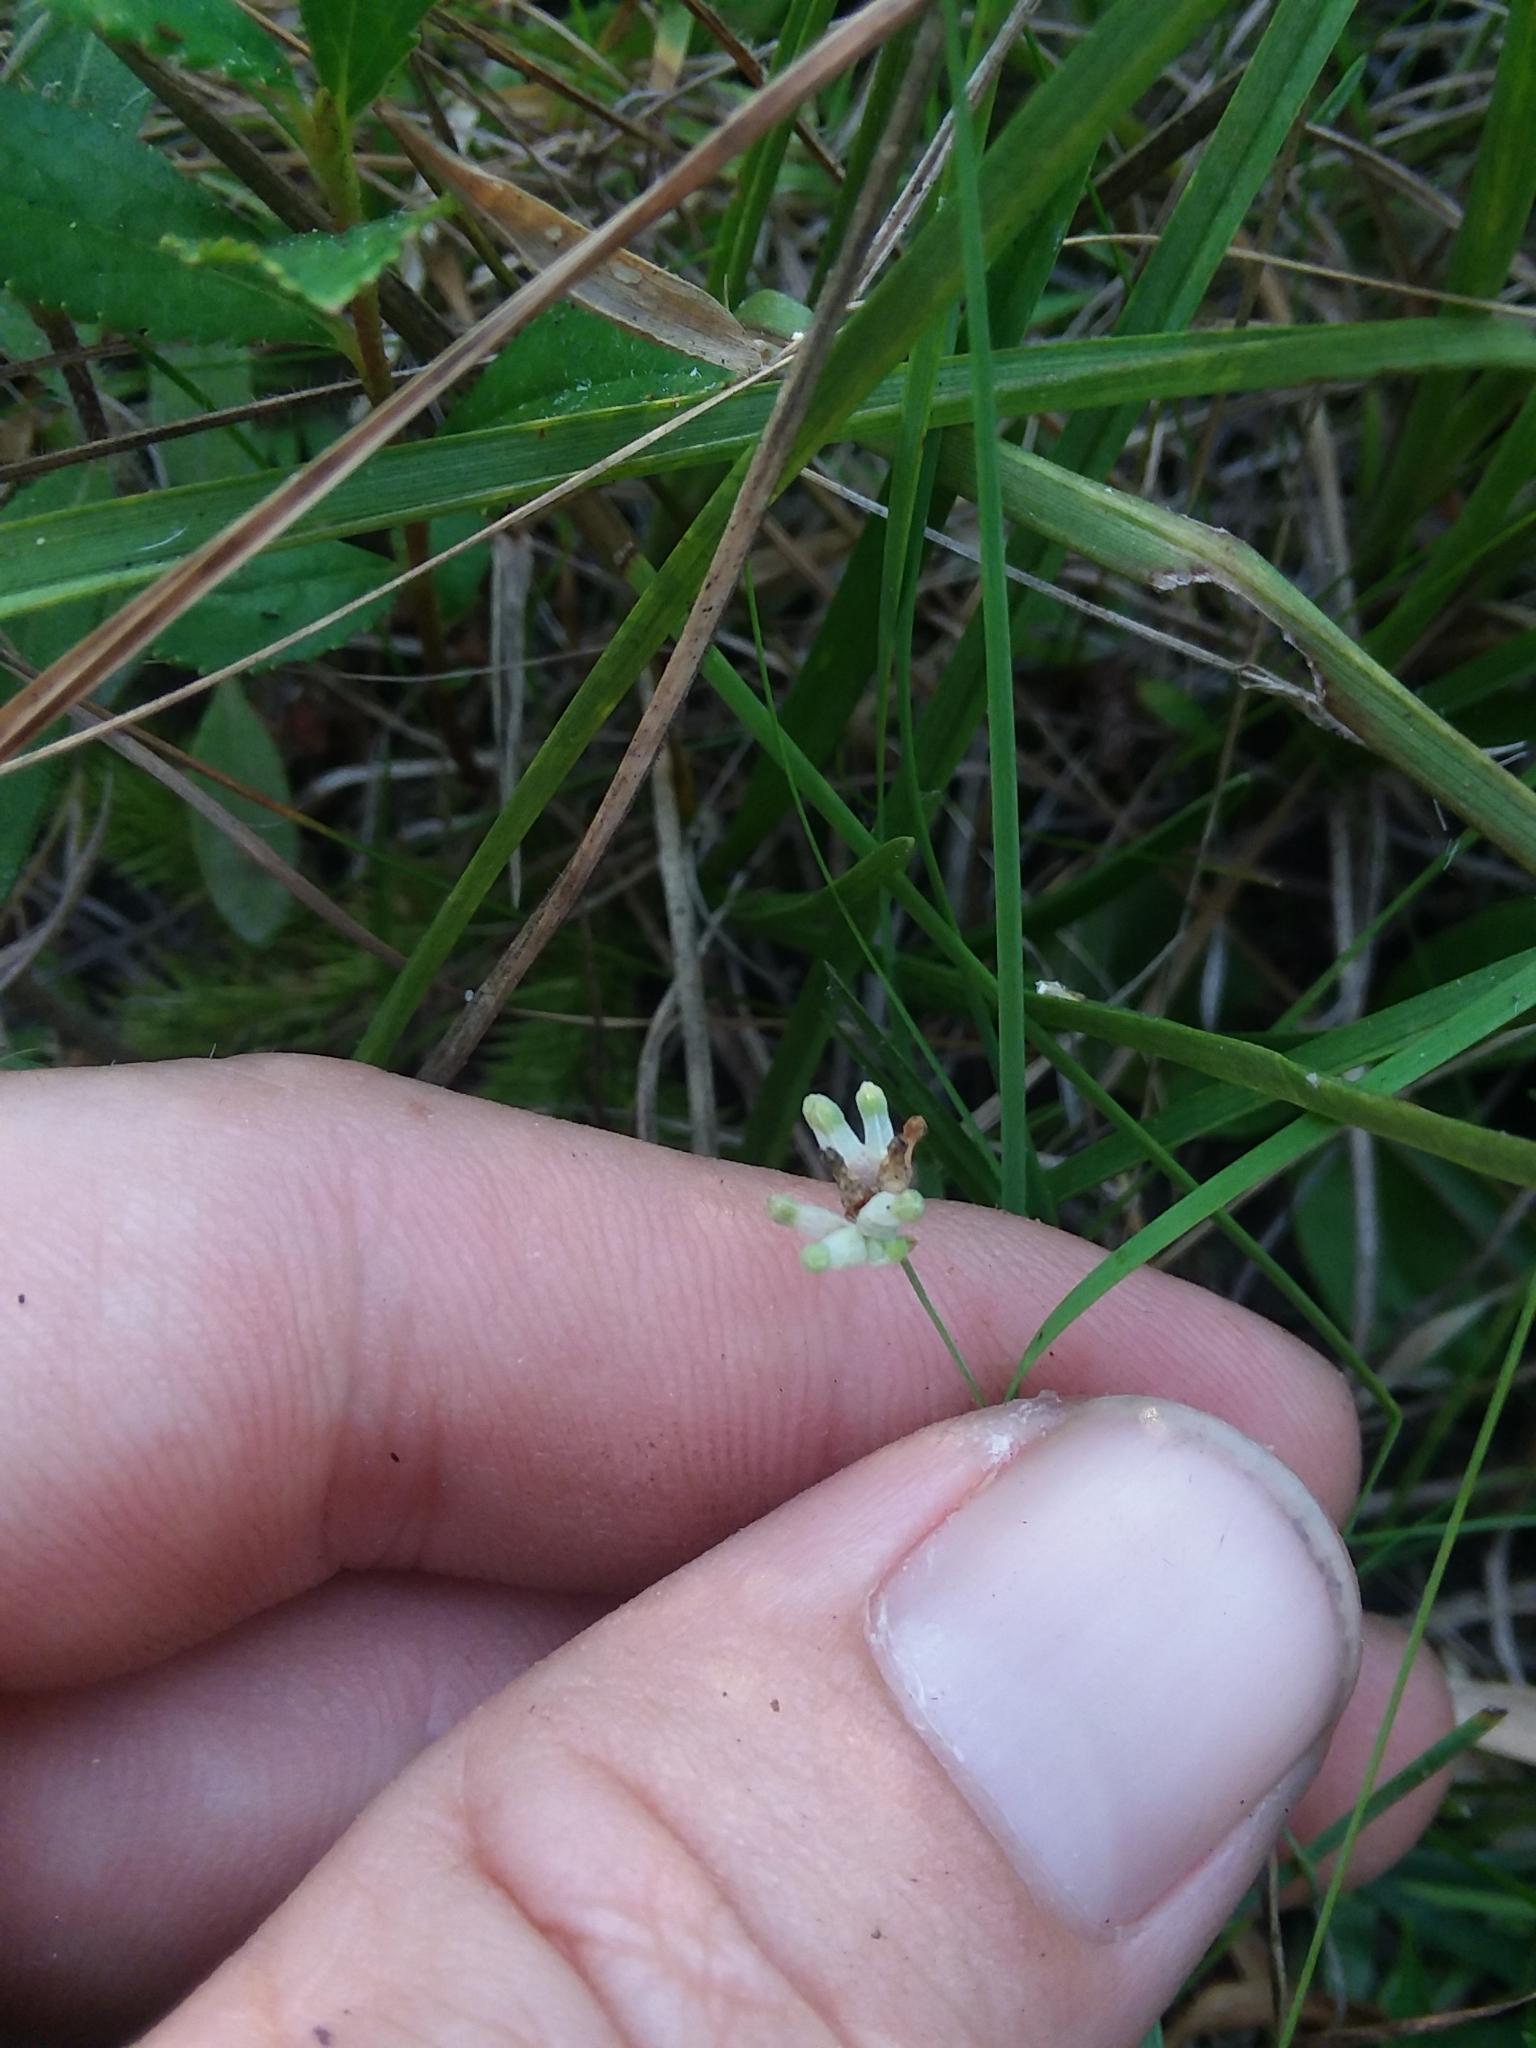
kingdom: Plantae
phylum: Tracheophyta
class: Liliopsida
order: Dioscoreales
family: Burmanniaceae
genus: Burmannia
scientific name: Burmannia capitata
